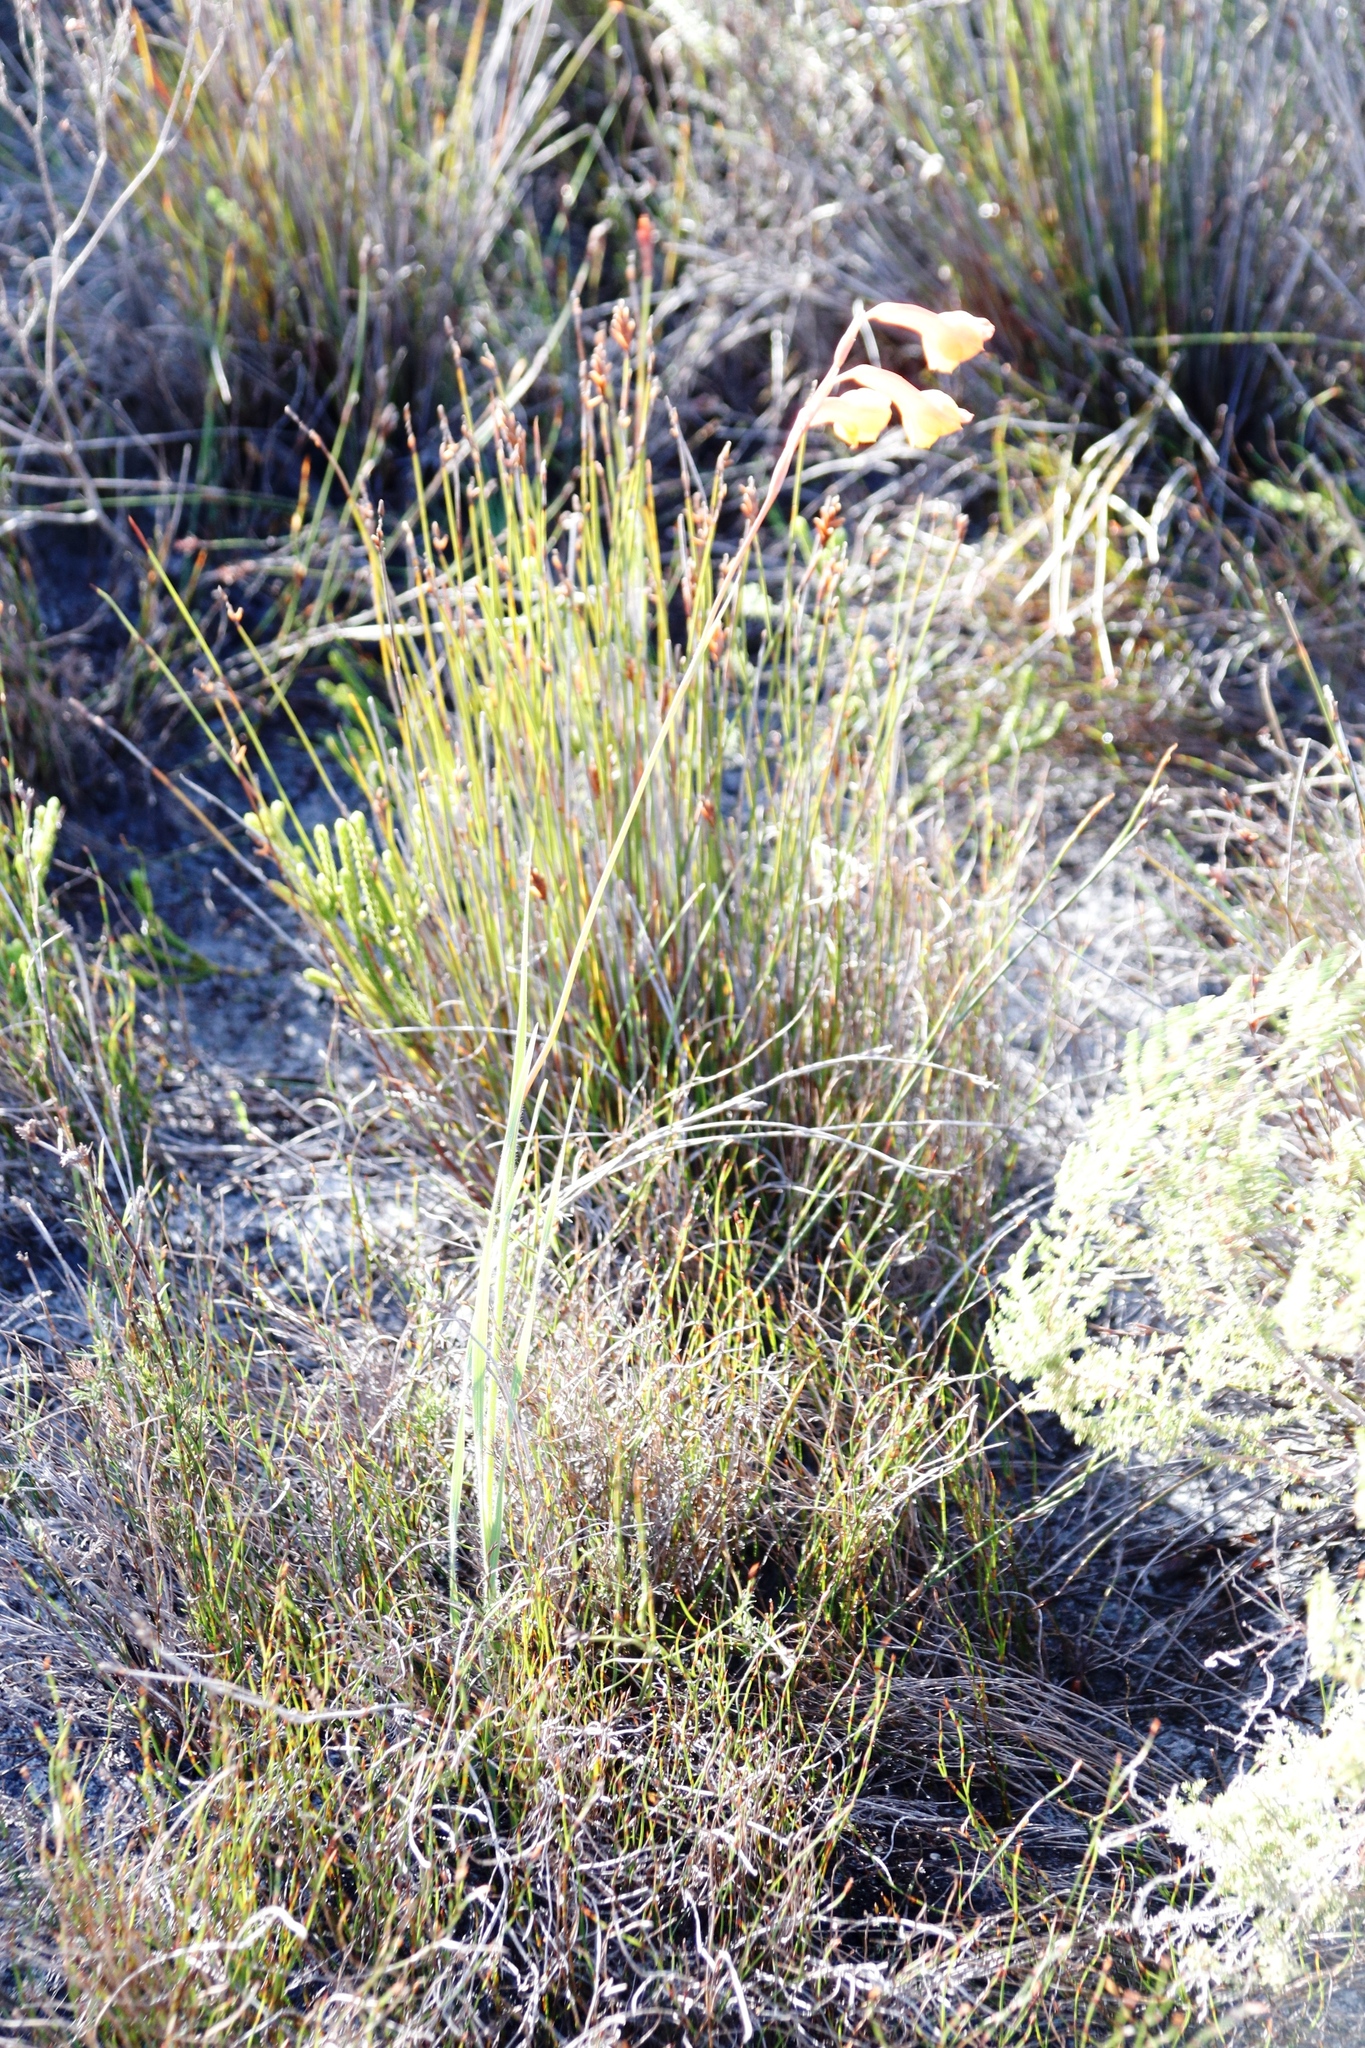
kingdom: Plantae
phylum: Tracheophyta
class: Liliopsida
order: Asparagales
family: Iridaceae
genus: Gladiolus
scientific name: Gladiolus merianellus
